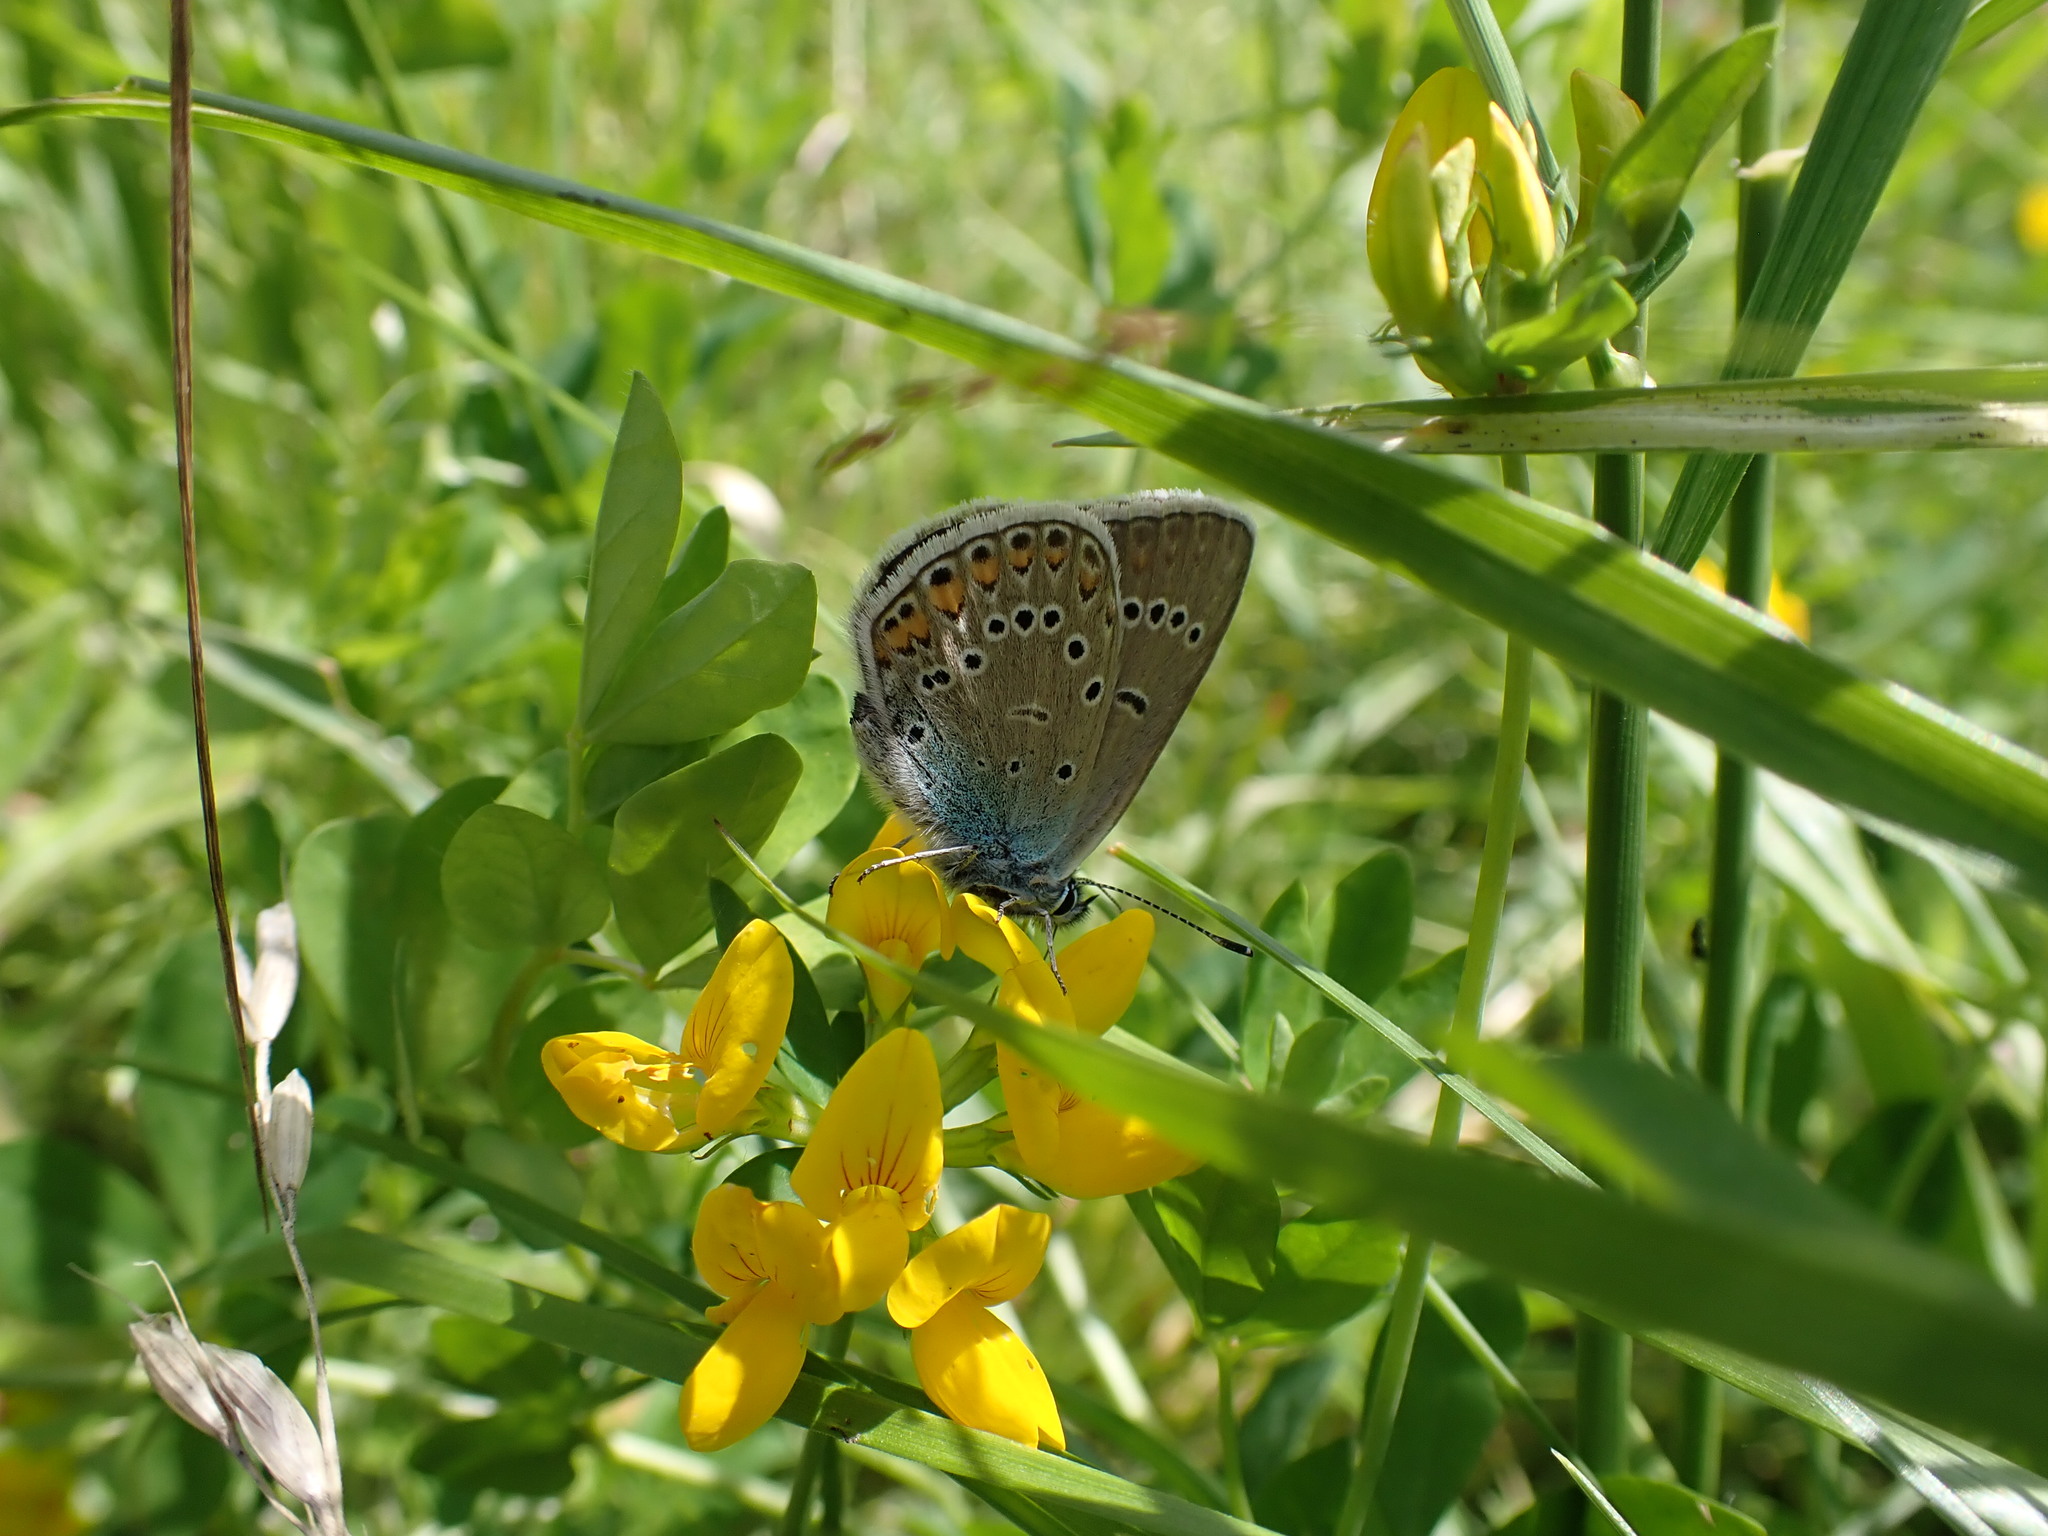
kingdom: Animalia
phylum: Arthropoda
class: Insecta
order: Lepidoptera
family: Lycaenidae
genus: Plebejus
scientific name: Plebejus amanda
